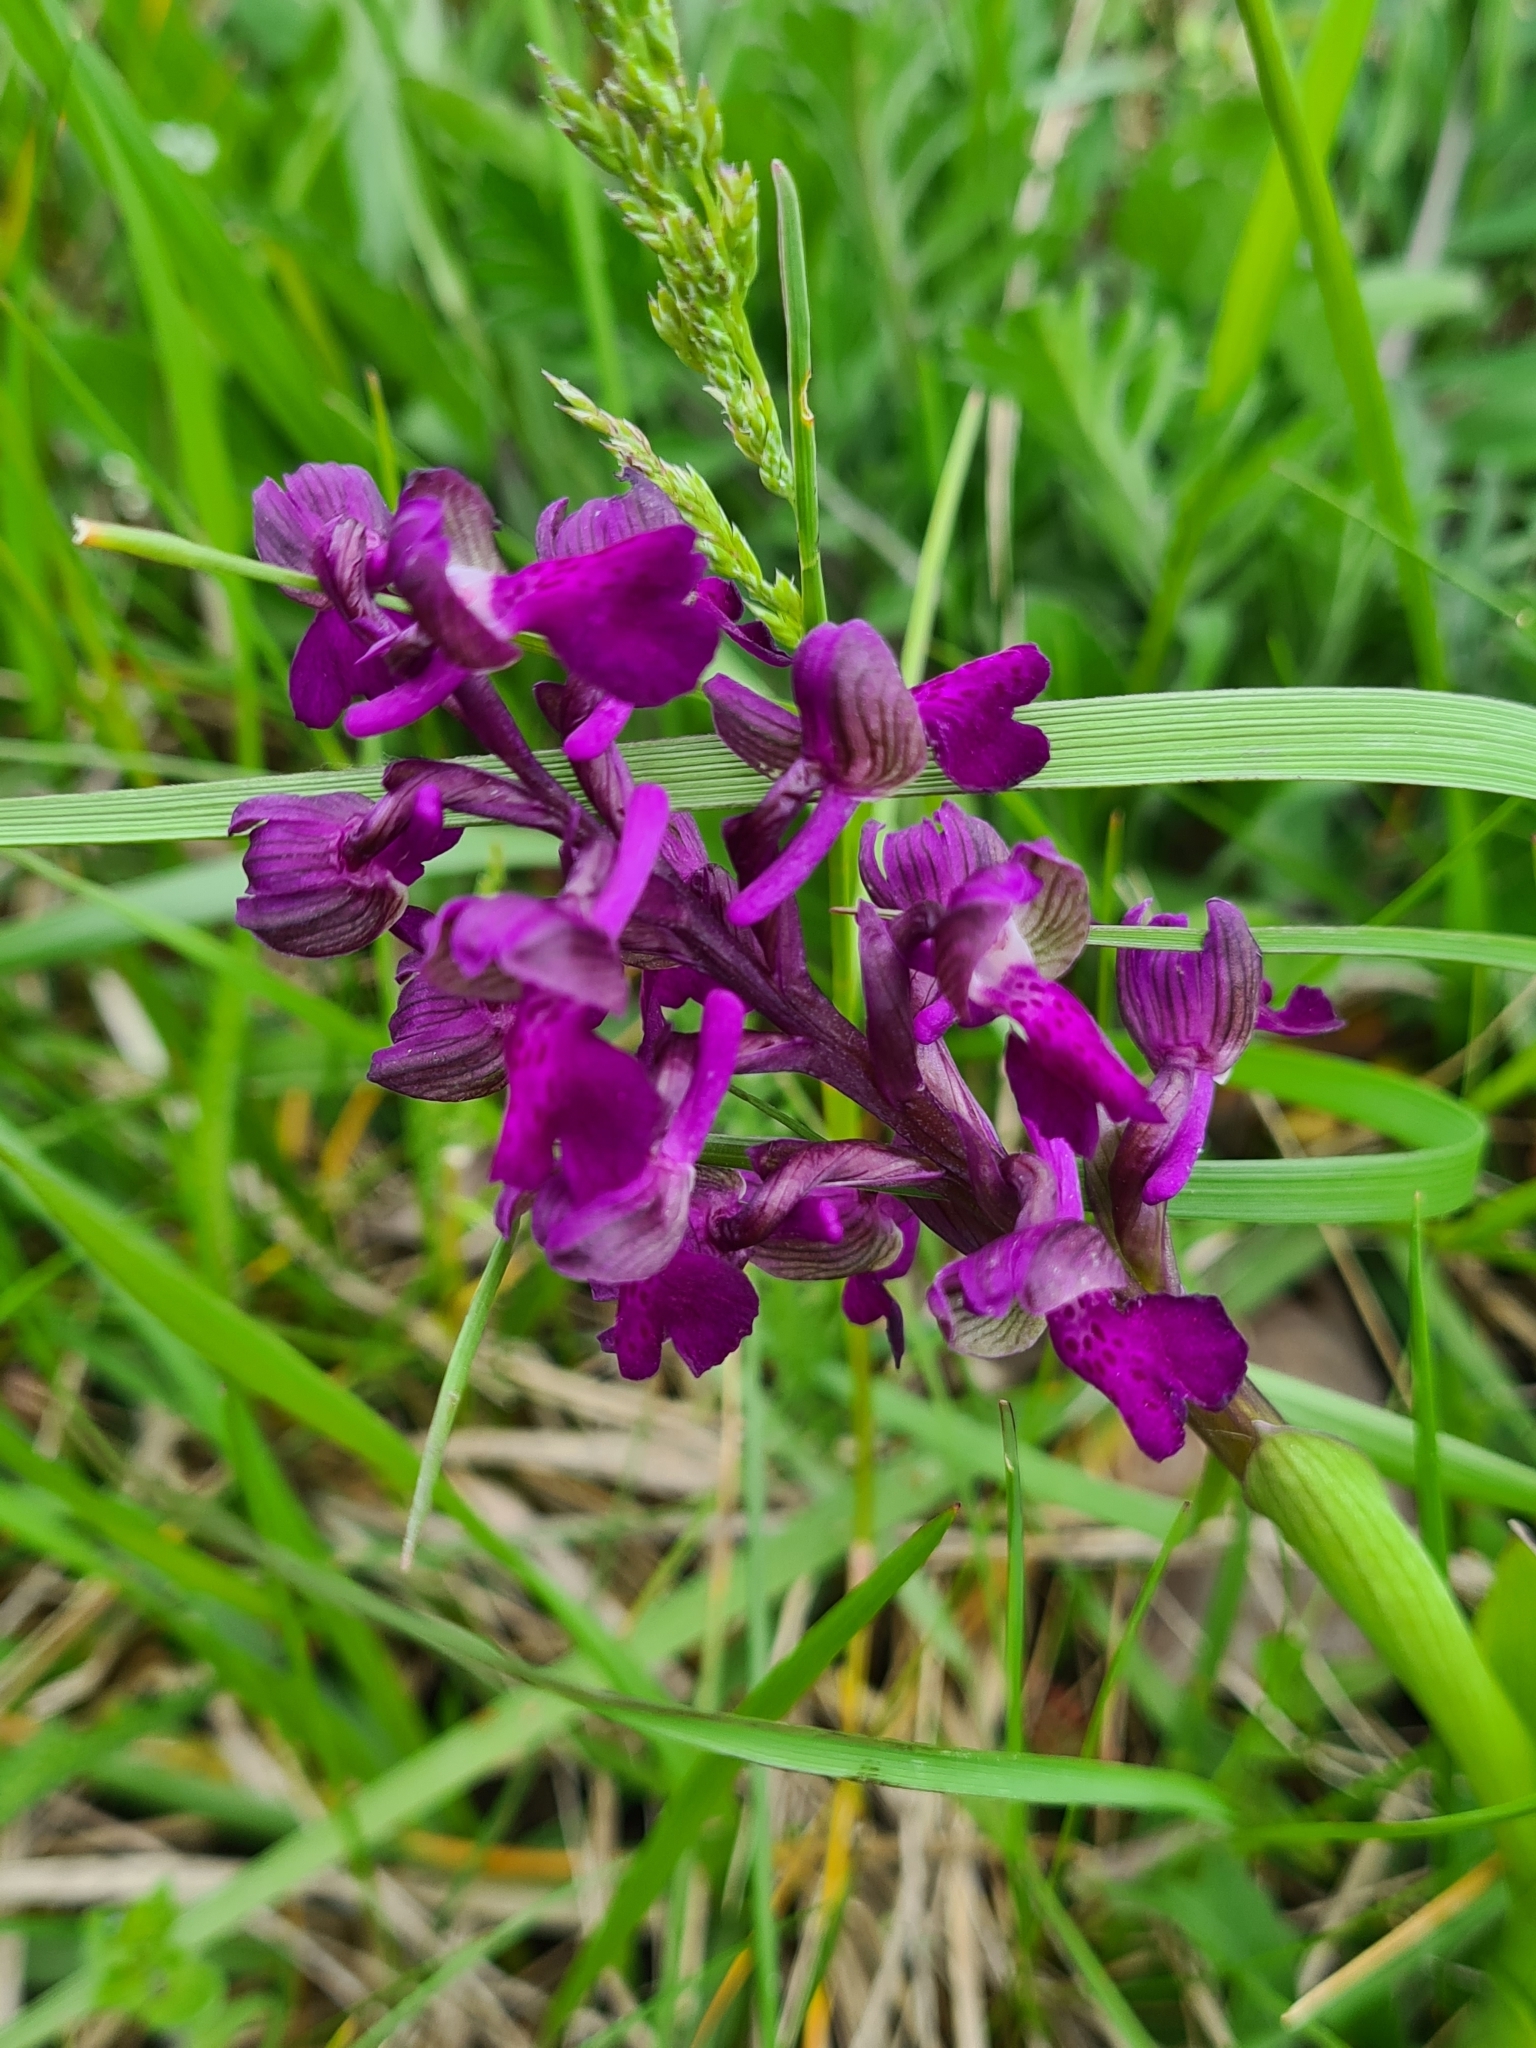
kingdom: Plantae
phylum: Tracheophyta
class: Liliopsida
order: Asparagales
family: Orchidaceae
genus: Anacamptis
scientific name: Anacamptis morio
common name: Green-winged orchid
